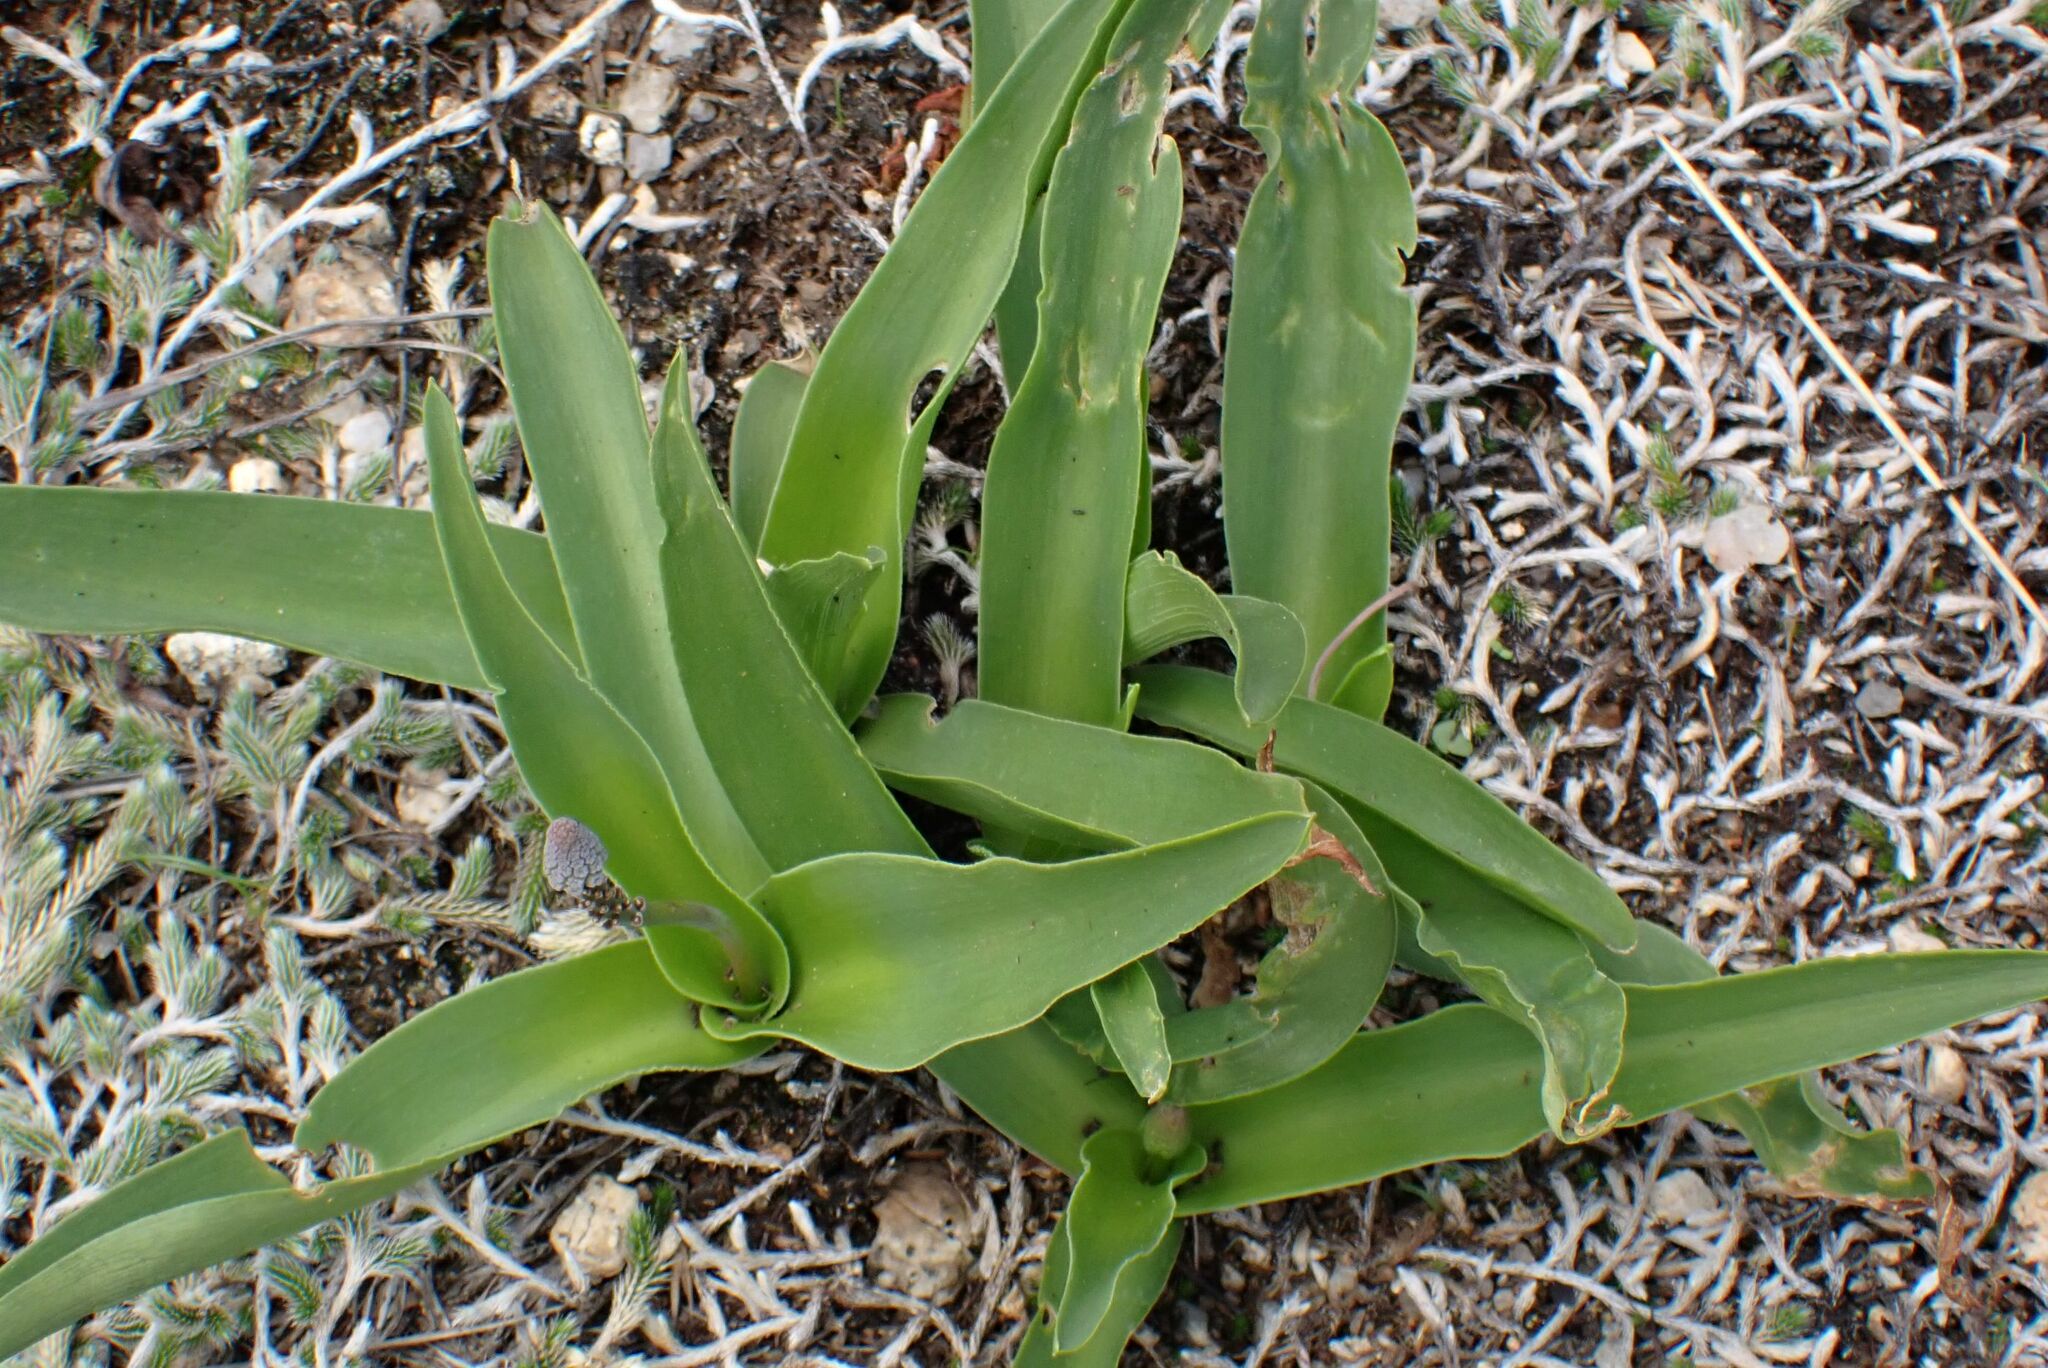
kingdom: Plantae
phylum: Tracheophyta
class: Liliopsida
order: Asparagales
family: Asparagaceae
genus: Ledebouria
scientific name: Ledebouria asperifolia
